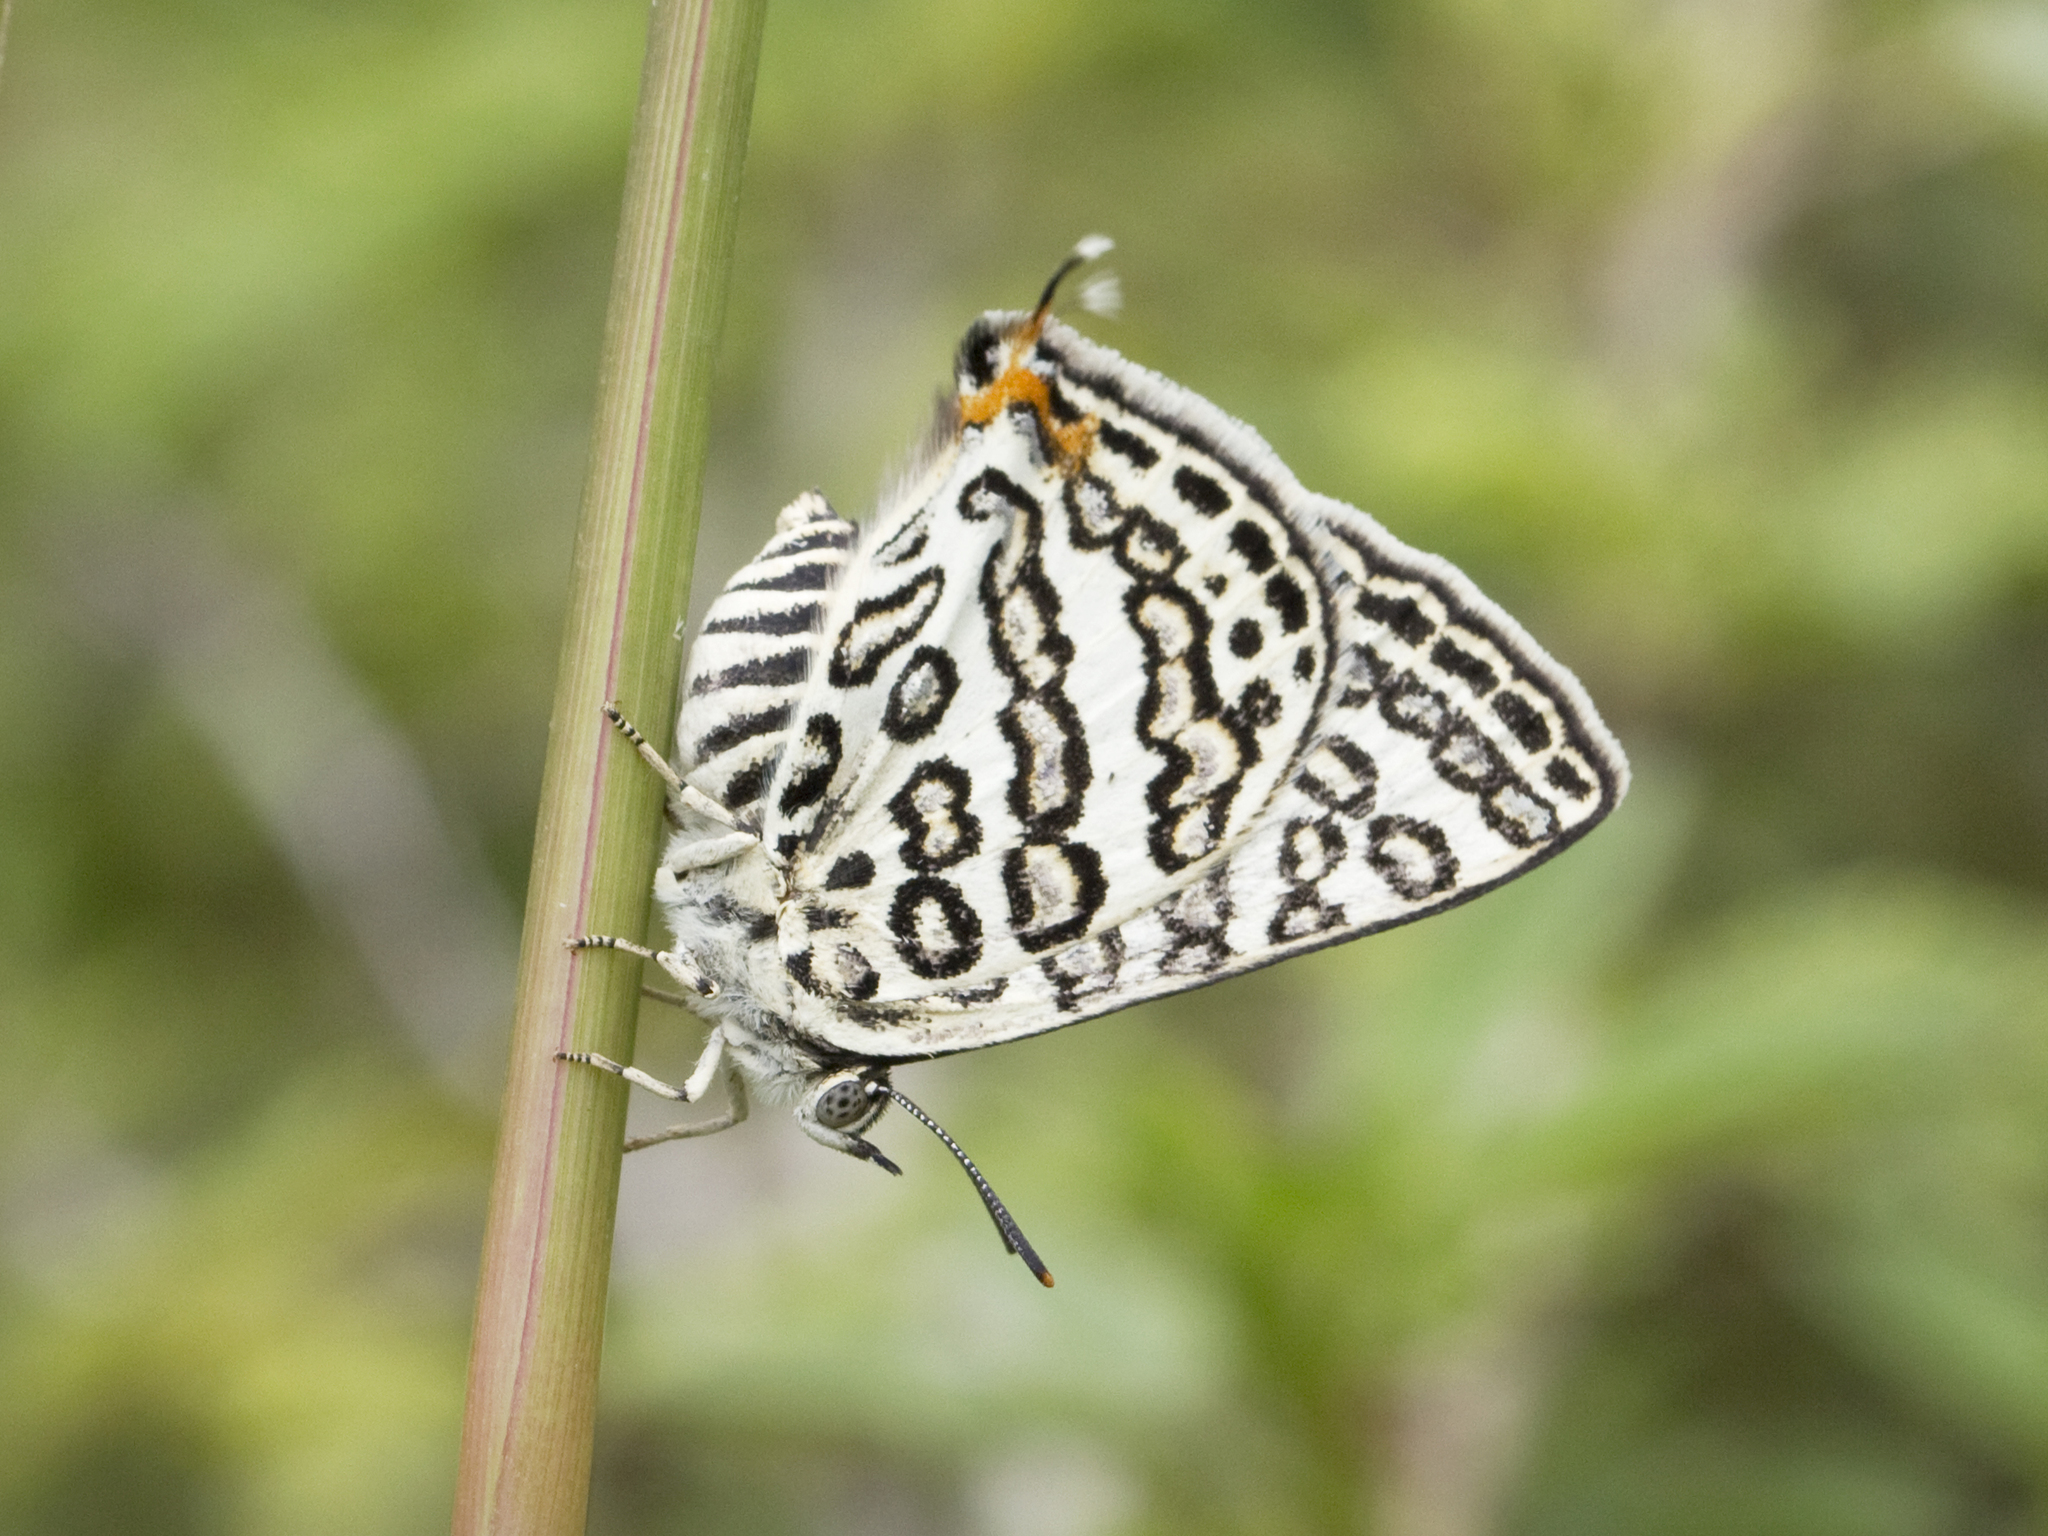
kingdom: Animalia
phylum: Arthropoda
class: Insecta
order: Lepidoptera
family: Lycaenidae
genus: Aphnaeus
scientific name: Aphnaeus lilacinus
